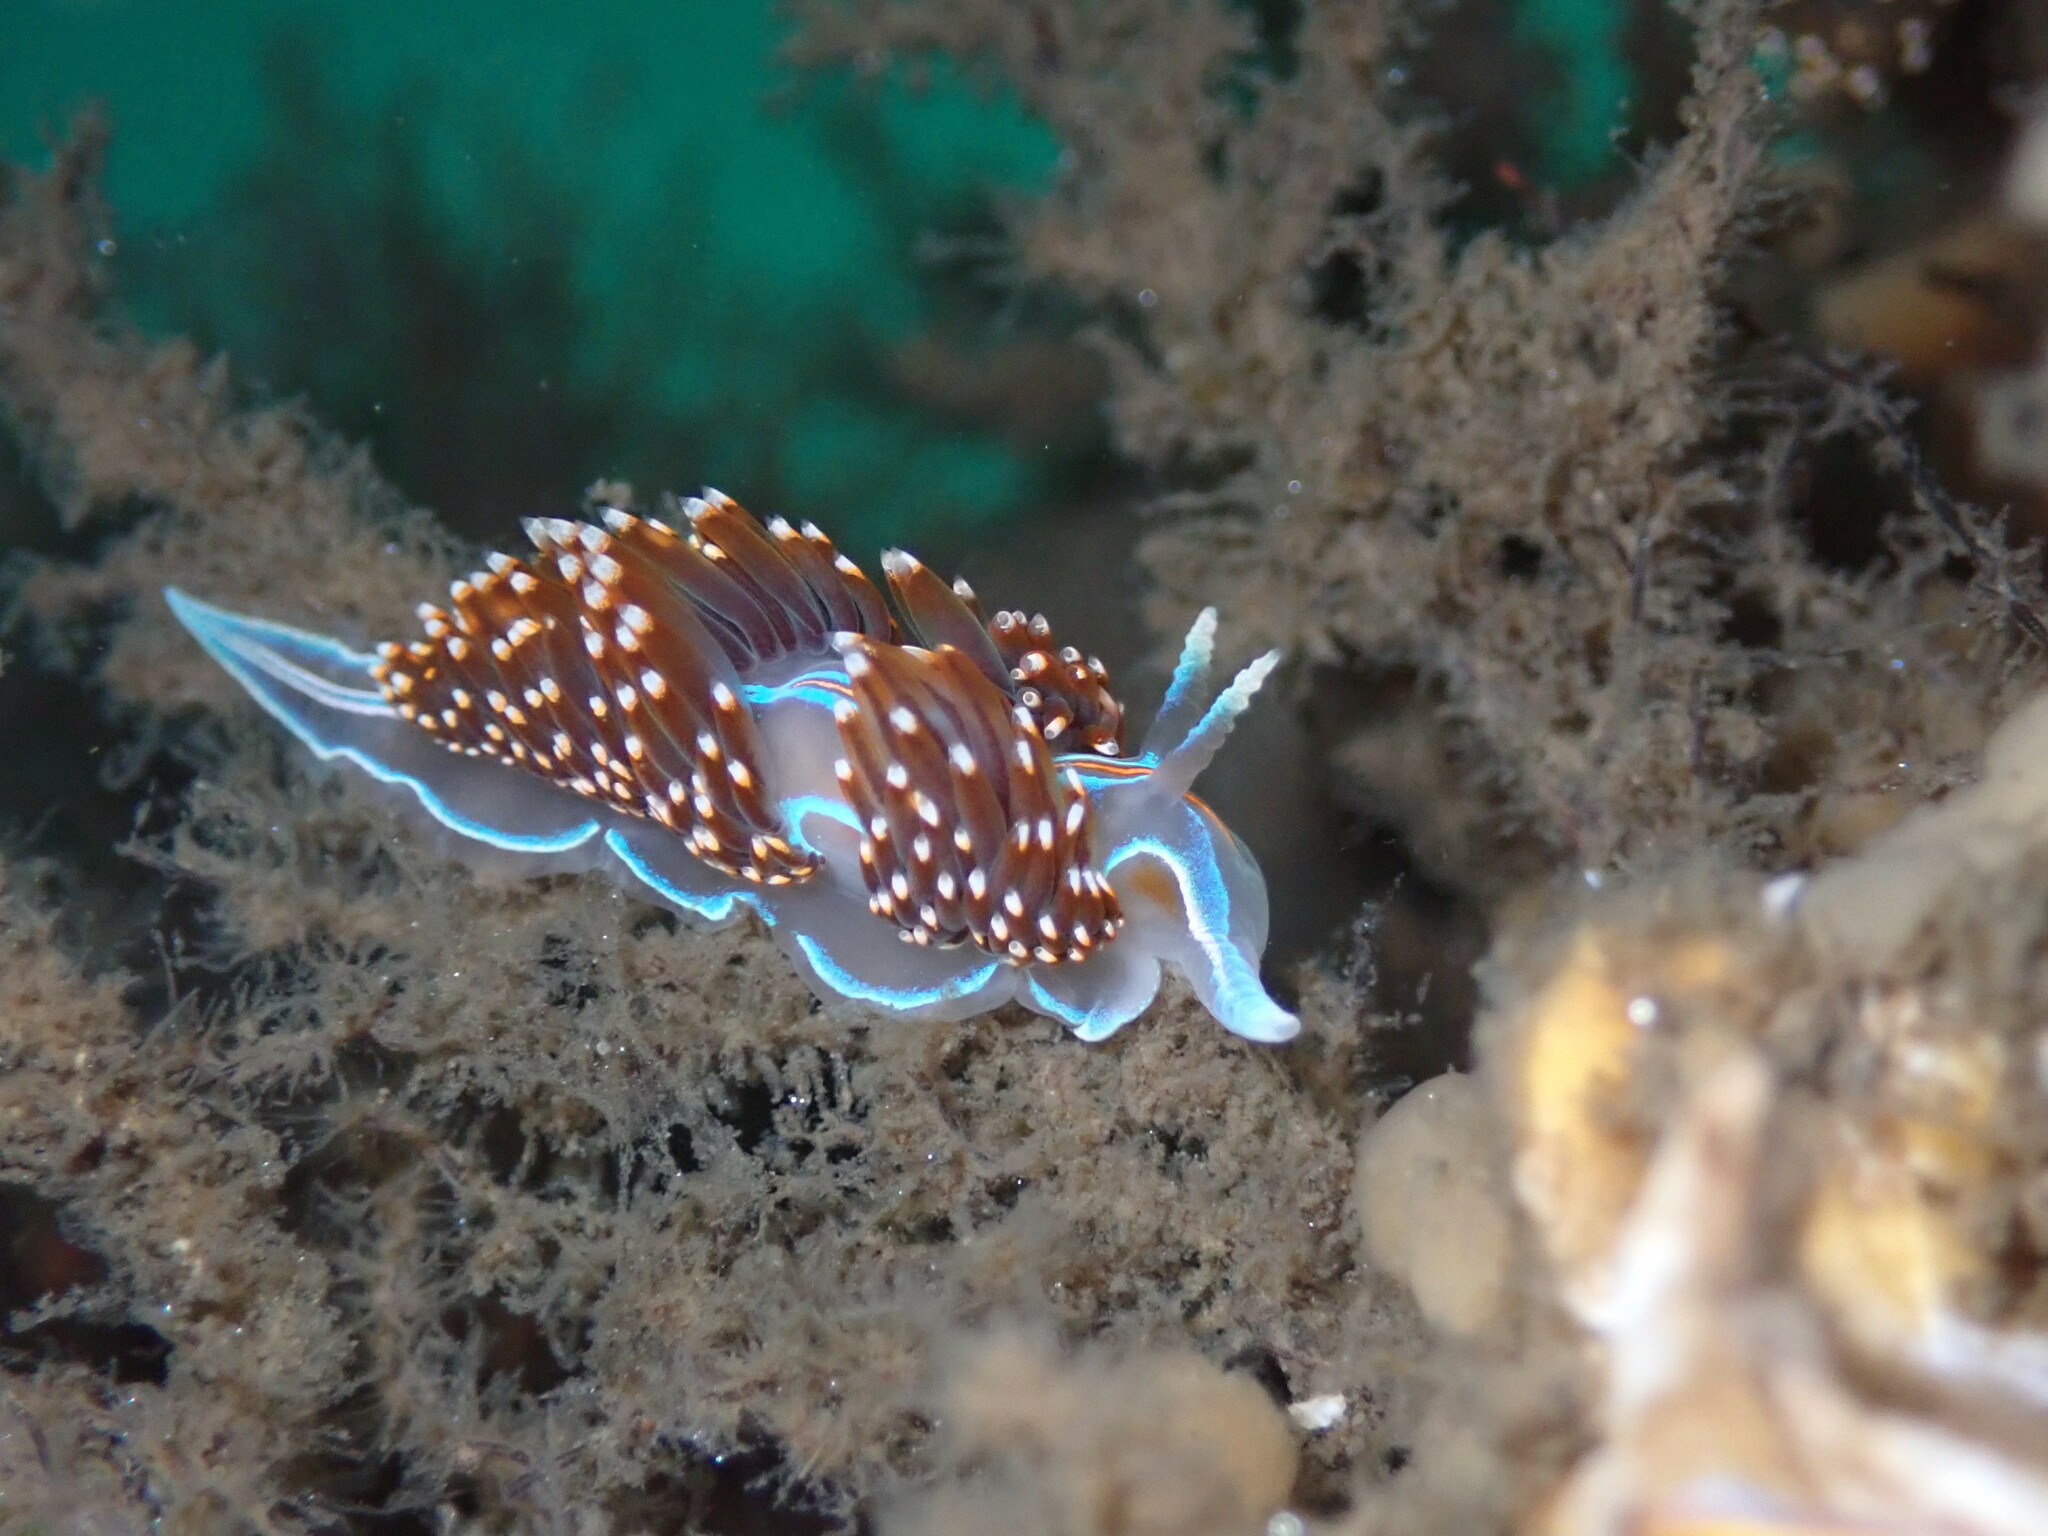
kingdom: Animalia
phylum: Mollusca
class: Gastropoda
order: Nudibranchia
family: Myrrhinidae
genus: Hermissenda
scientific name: Hermissenda opalescens
